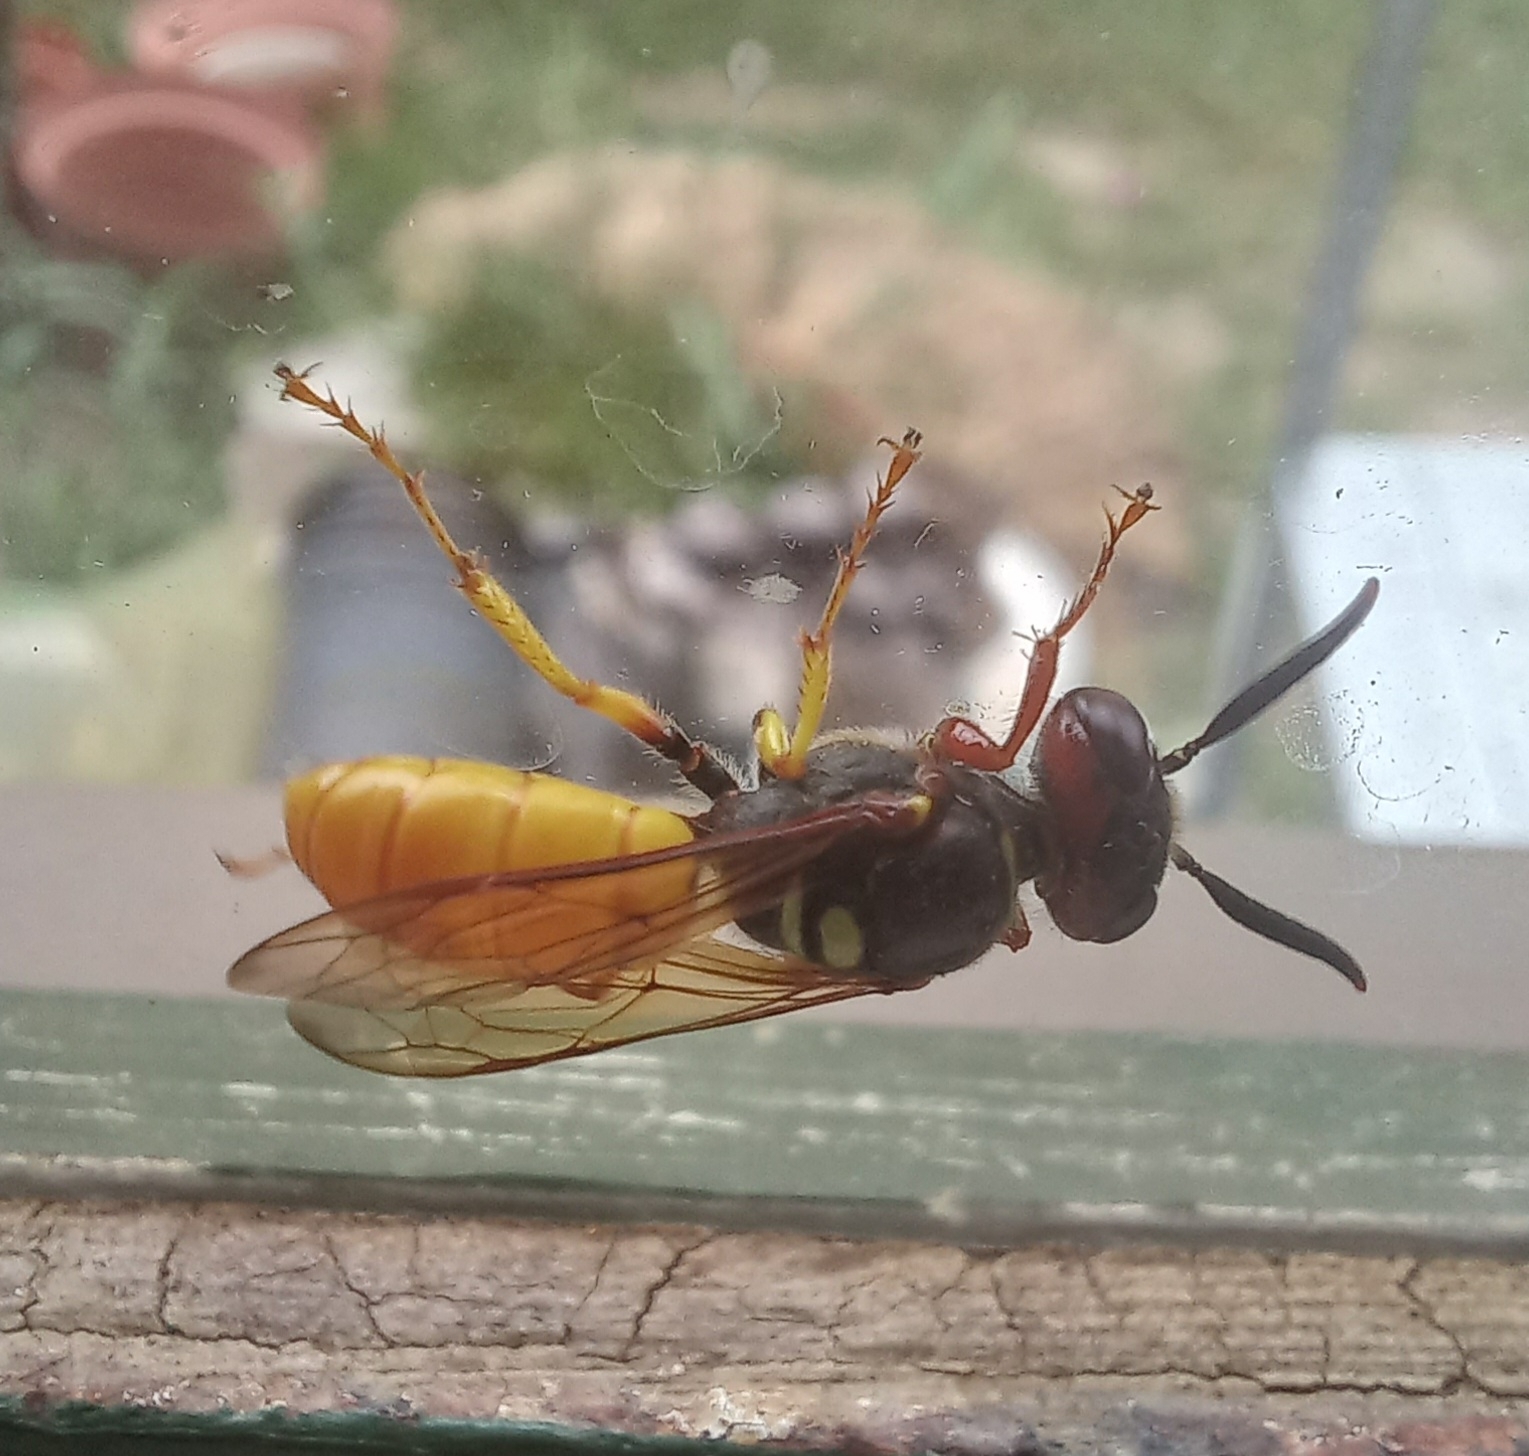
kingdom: Animalia
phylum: Arthropoda
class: Insecta
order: Hymenoptera
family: Crabronidae
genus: Philanthus
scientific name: Philanthus triangulum
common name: Bee wolf
